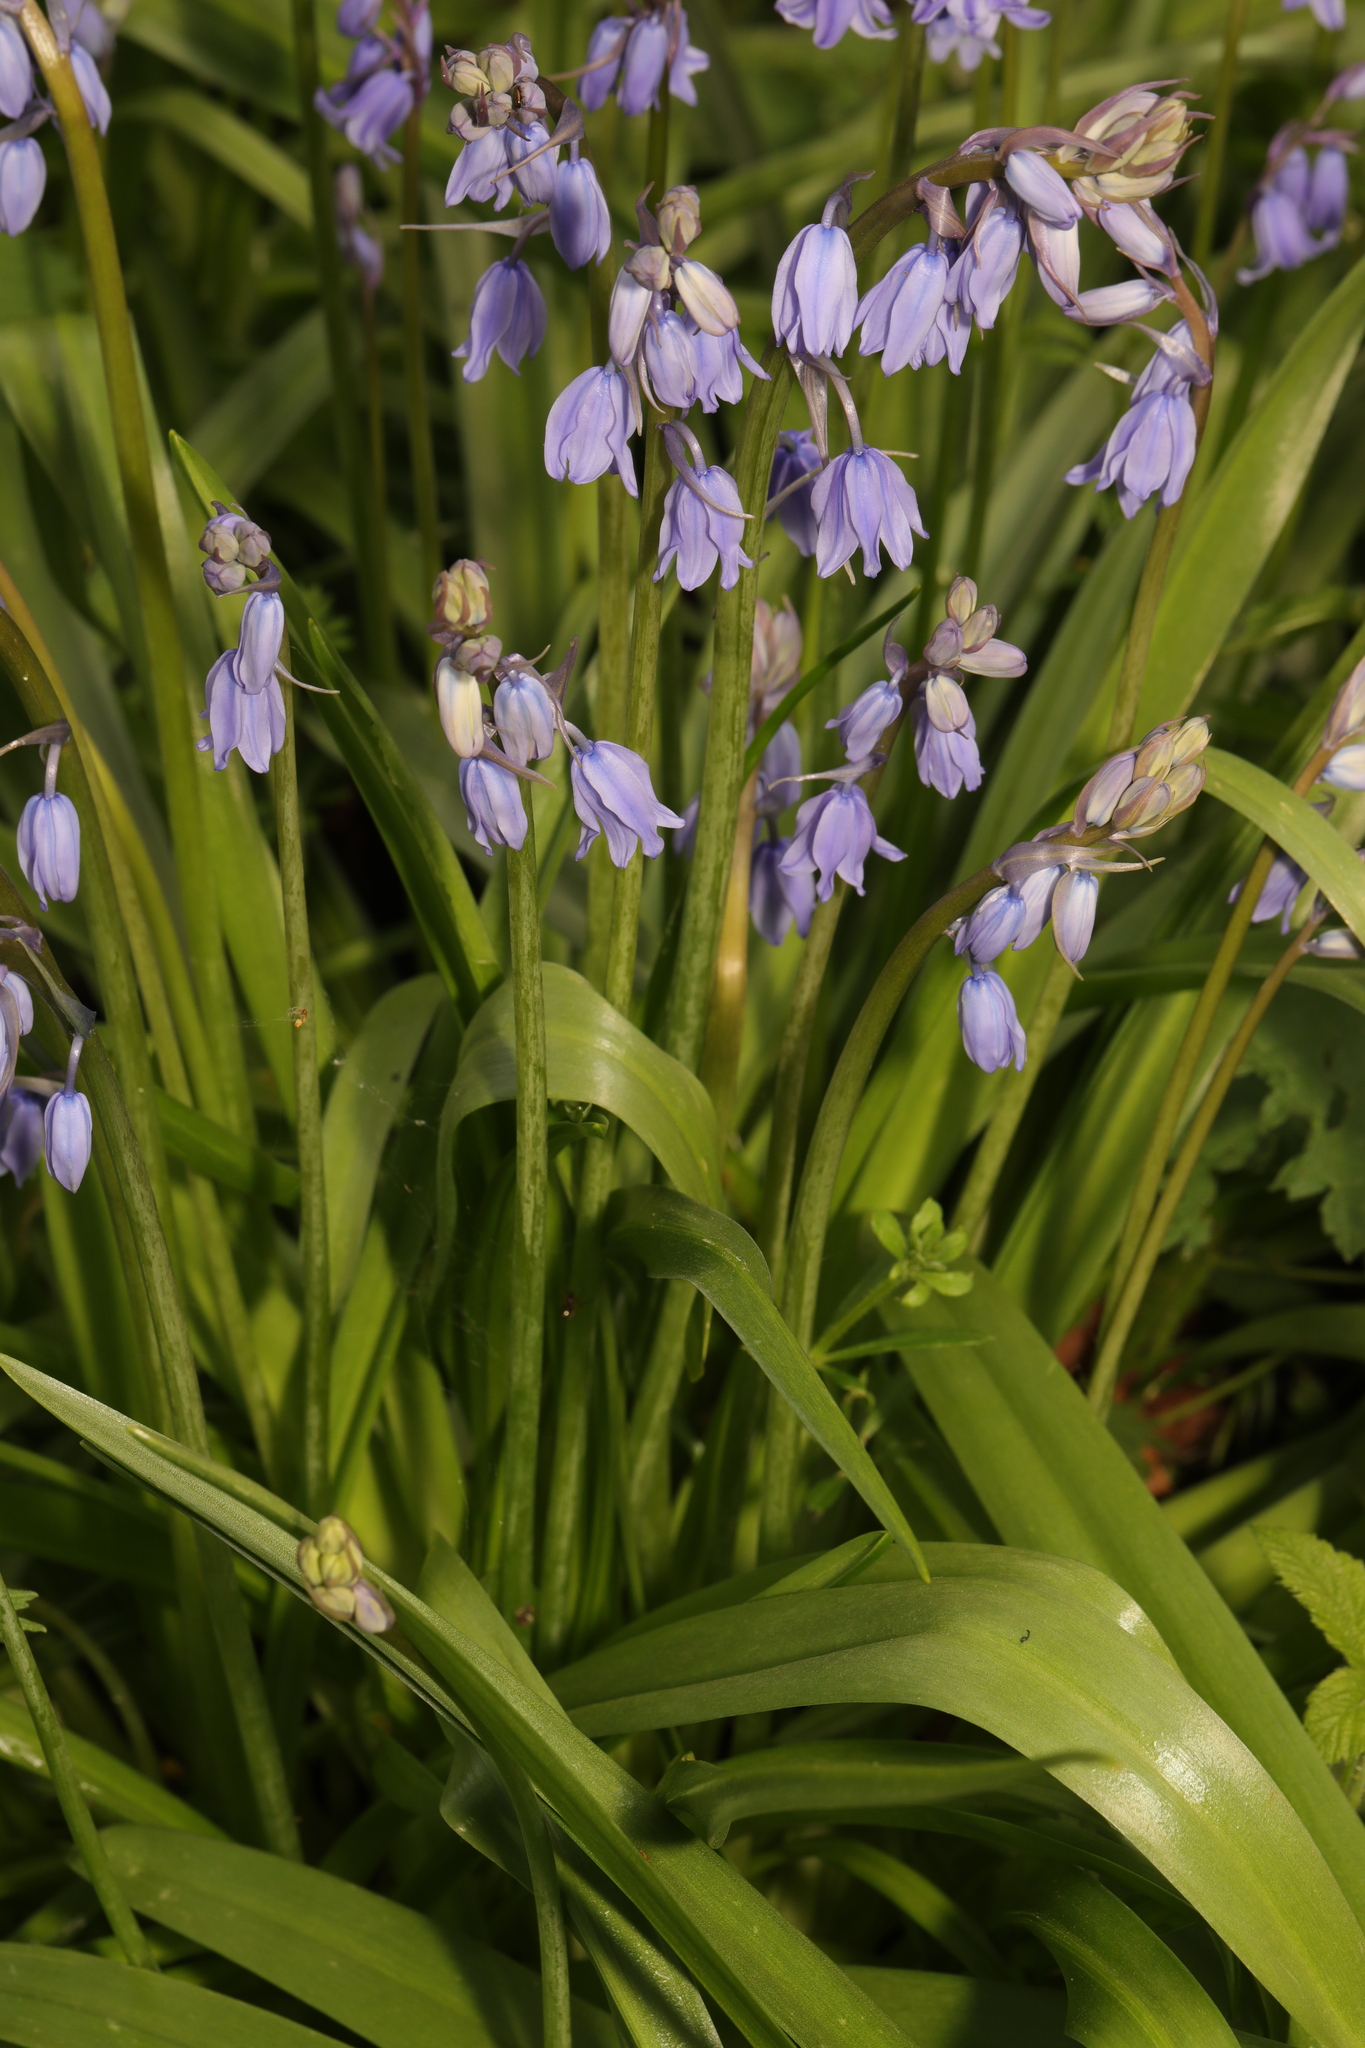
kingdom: Plantae
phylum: Tracheophyta
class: Liliopsida
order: Asparagales
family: Asparagaceae
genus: Hyacinthoides
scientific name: Hyacinthoides hispanica
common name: Spanish bluebell
